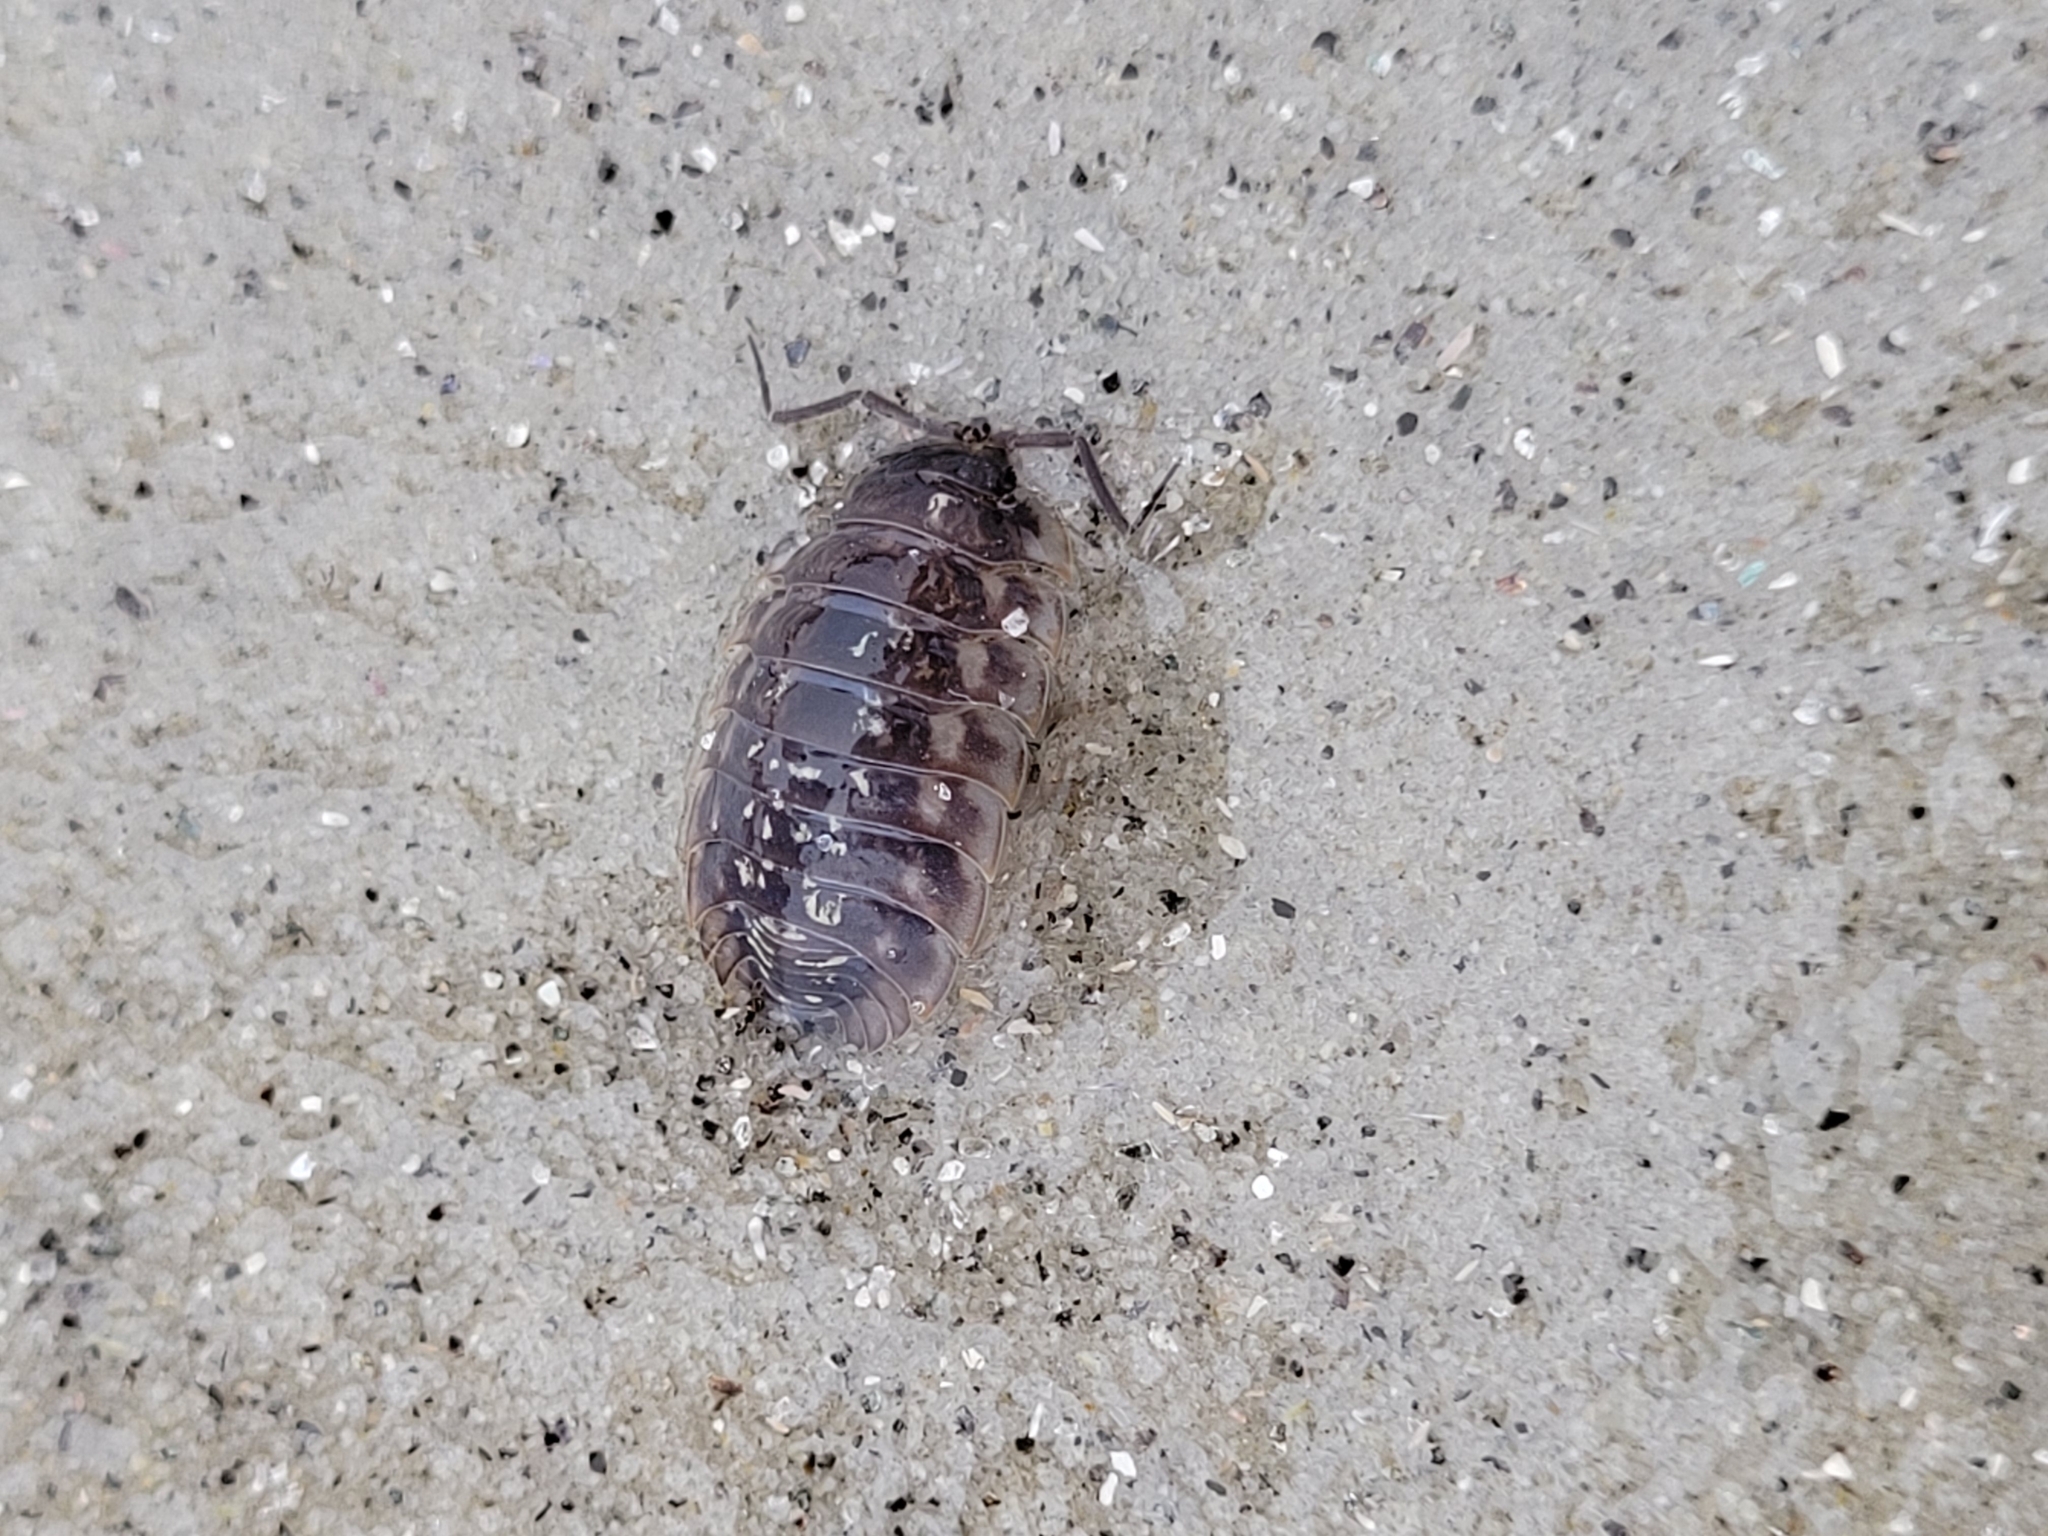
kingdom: Animalia
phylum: Arthropoda
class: Malacostraca
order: Isopoda
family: Oniscidae
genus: Oniscus
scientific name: Oniscus asellus
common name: Common shiny woodlouse
